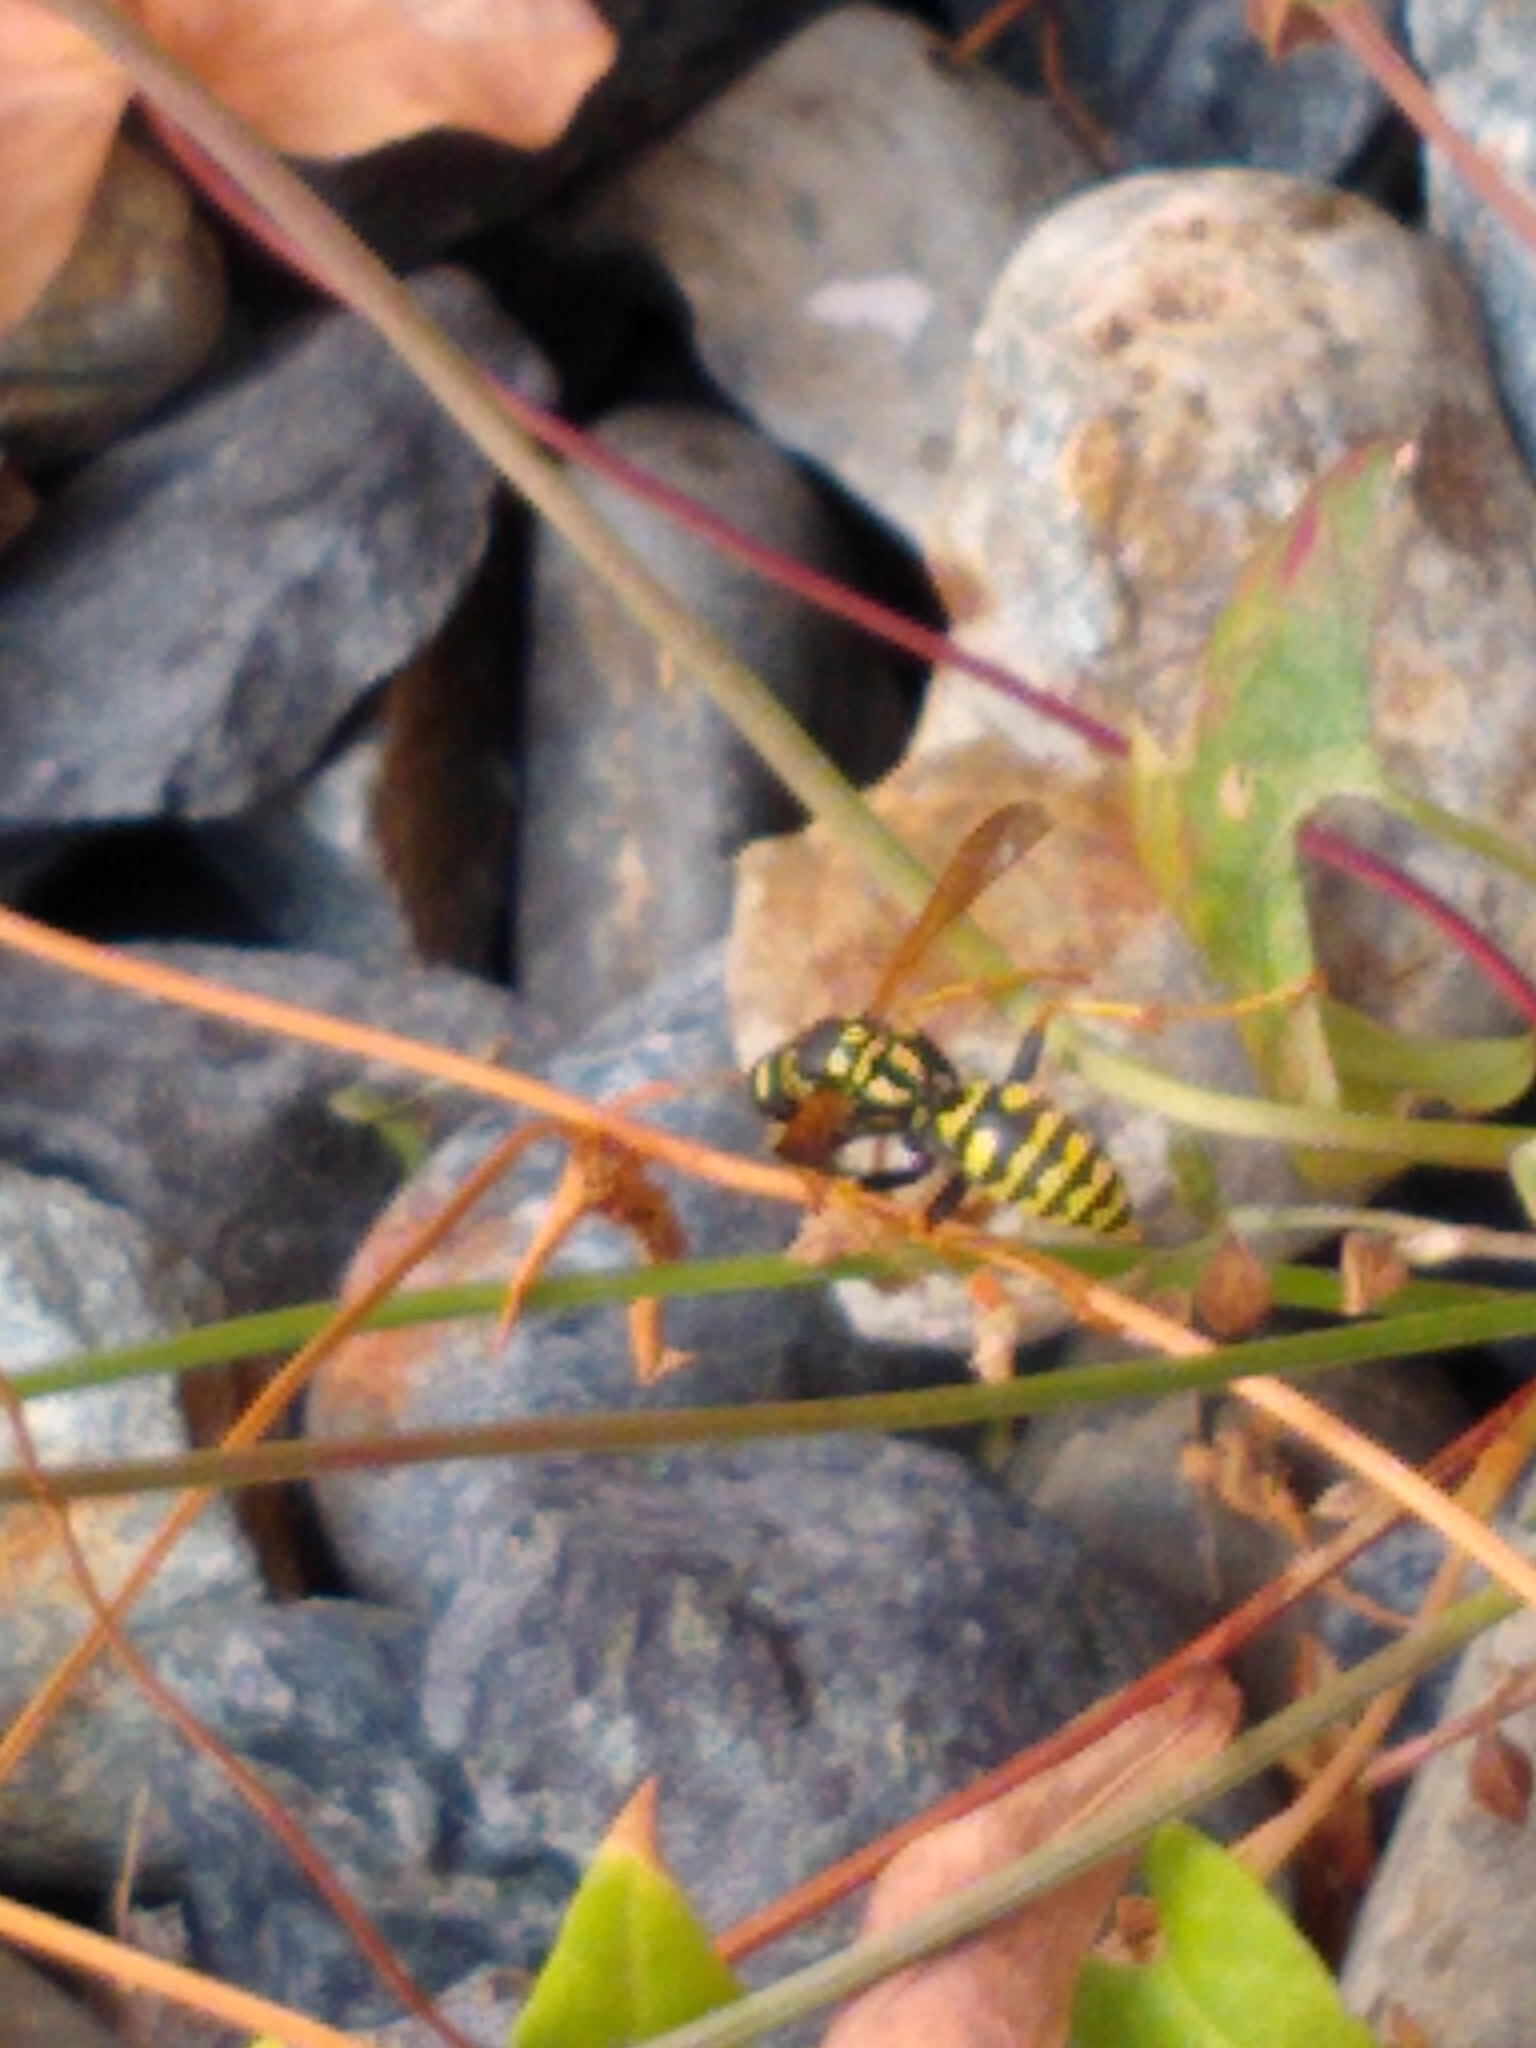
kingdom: Animalia
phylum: Arthropoda
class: Insecta
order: Hymenoptera
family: Eumenidae
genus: Polistes
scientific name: Polistes dominula
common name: Paper wasp
